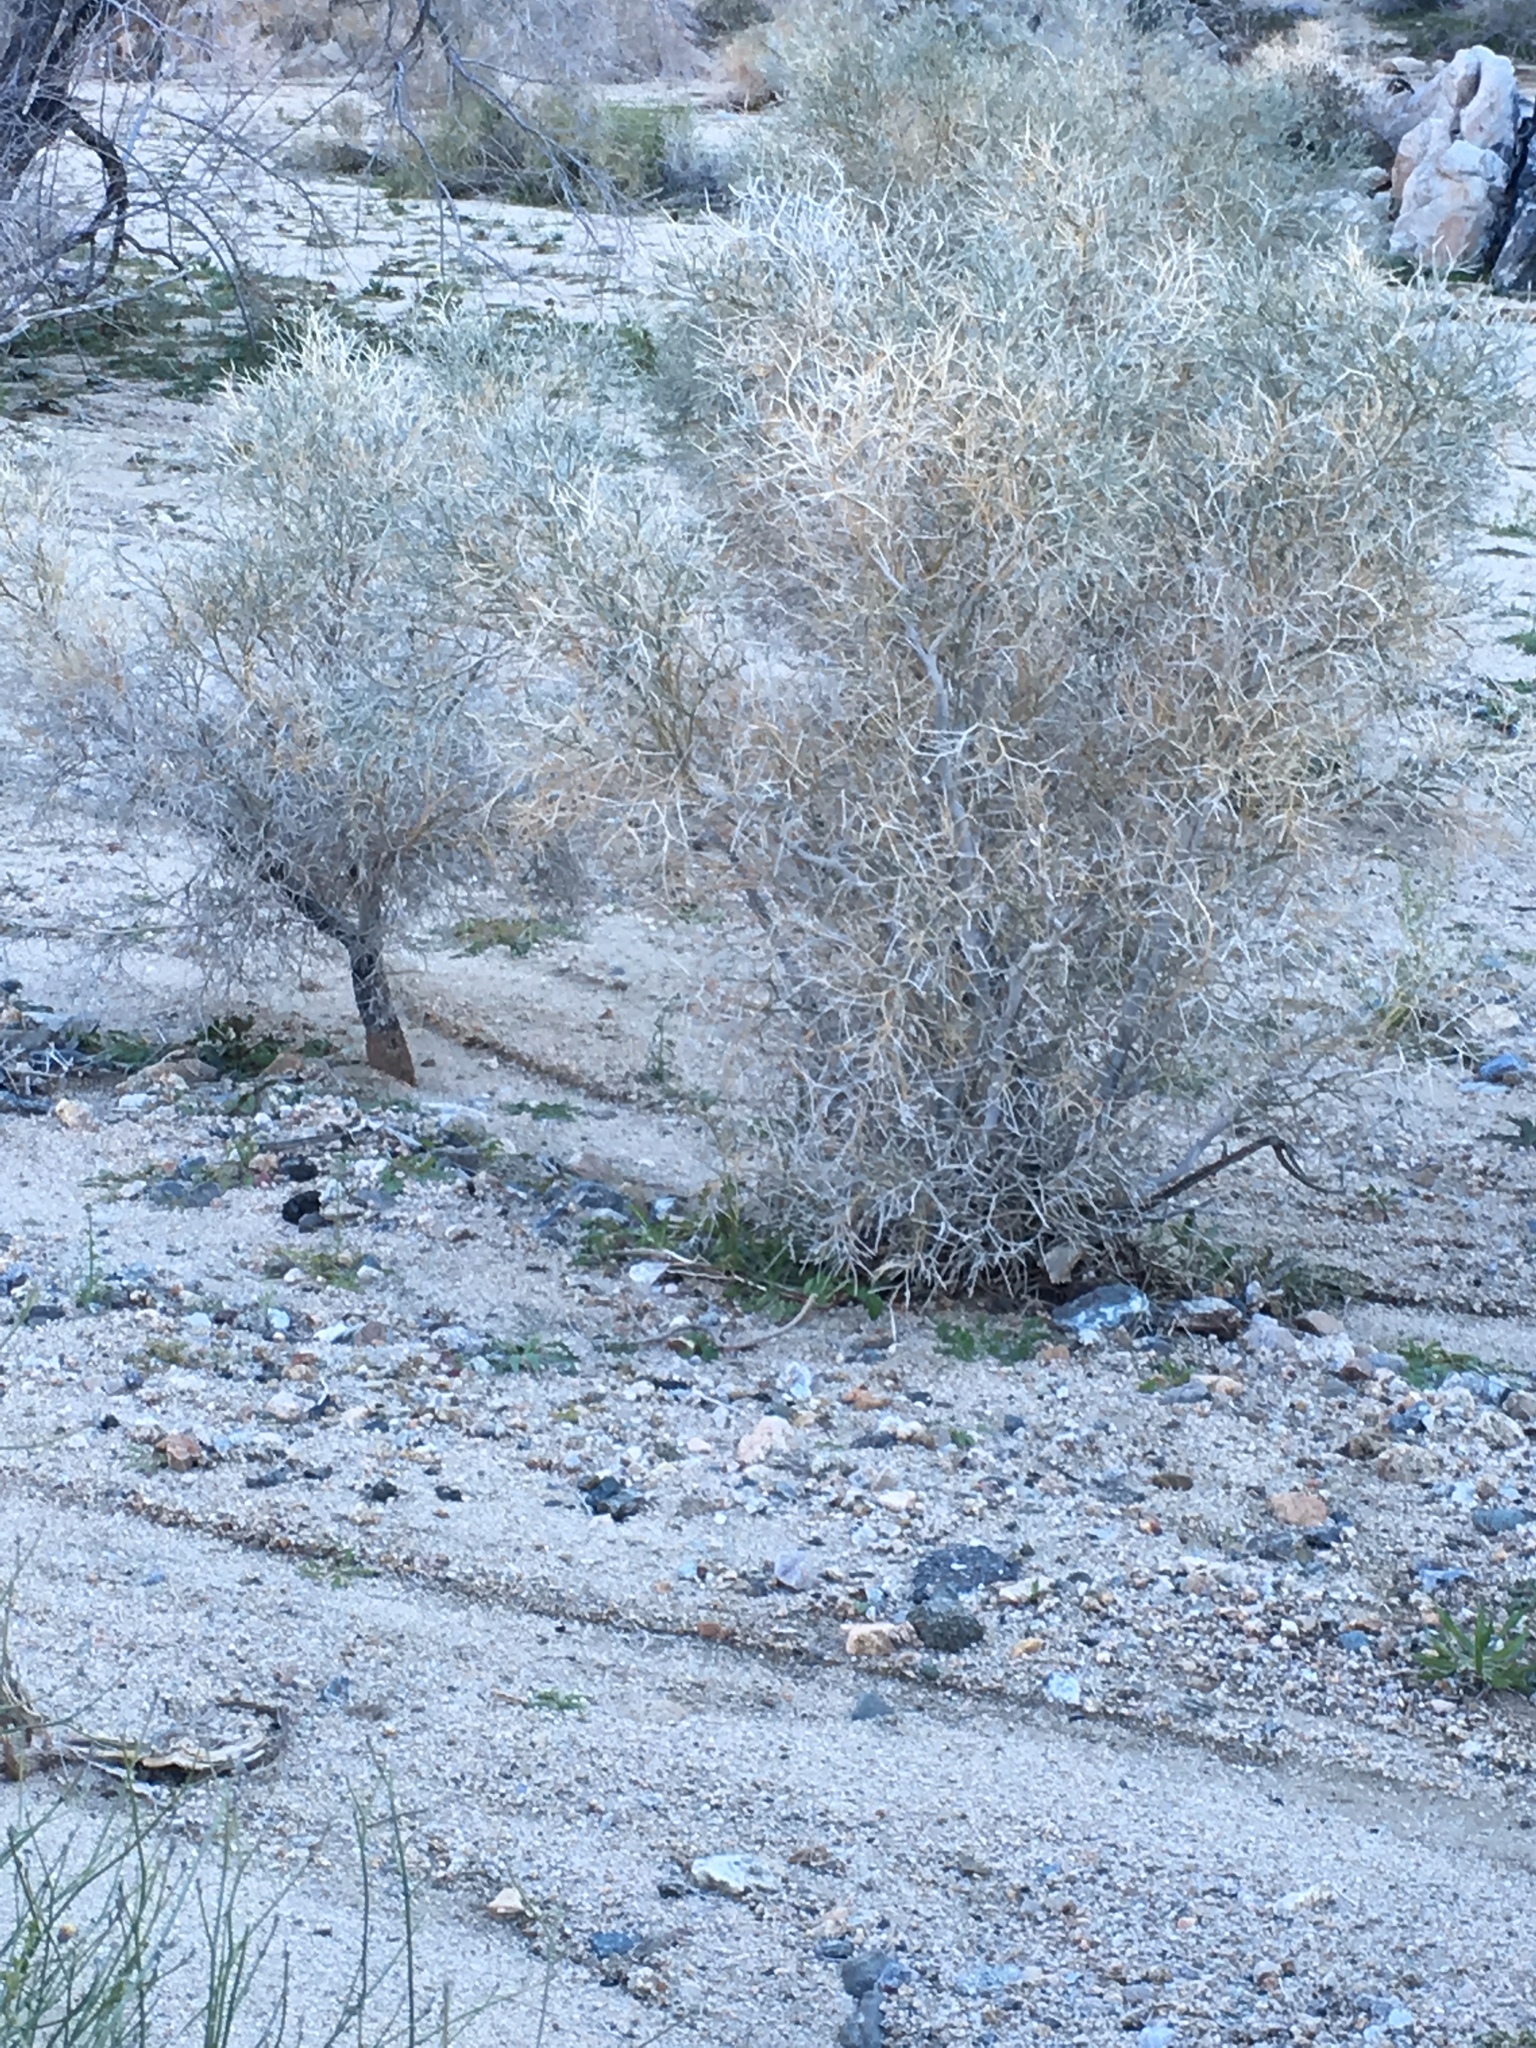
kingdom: Plantae
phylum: Tracheophyta
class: Magnoliopsida
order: Fabales
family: Fabaceae
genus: Psorothamnus
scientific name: Psorothamnus spinosus
